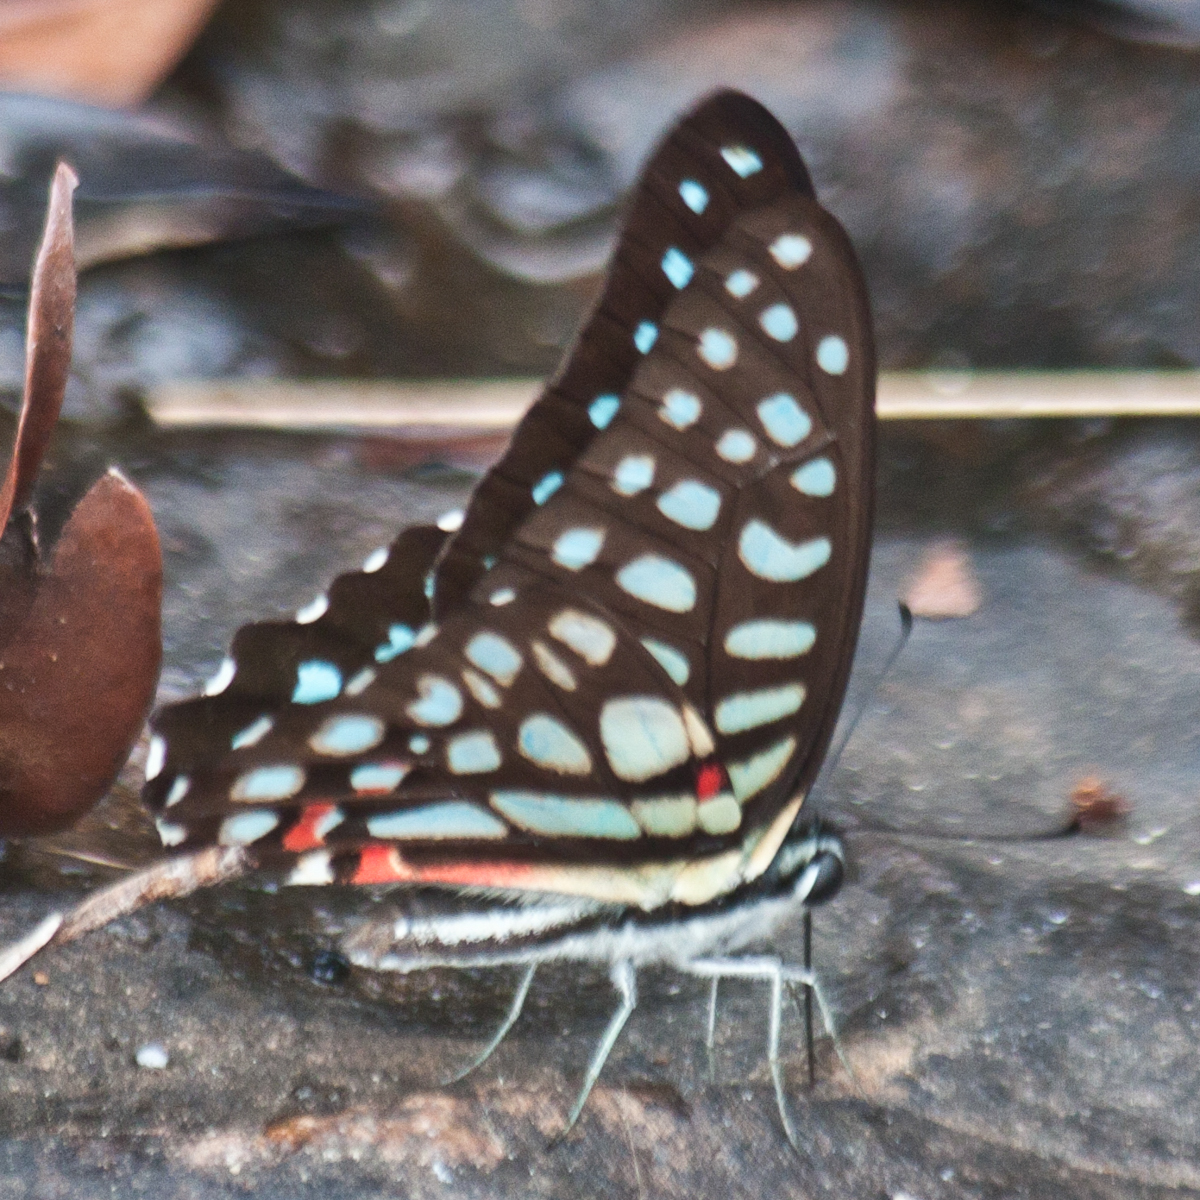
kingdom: Animalia
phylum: Arthropoda
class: Insecta
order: Lepidoptera
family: Papilionidae
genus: Graphium
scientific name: Graphium arycles
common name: Spotted jay
